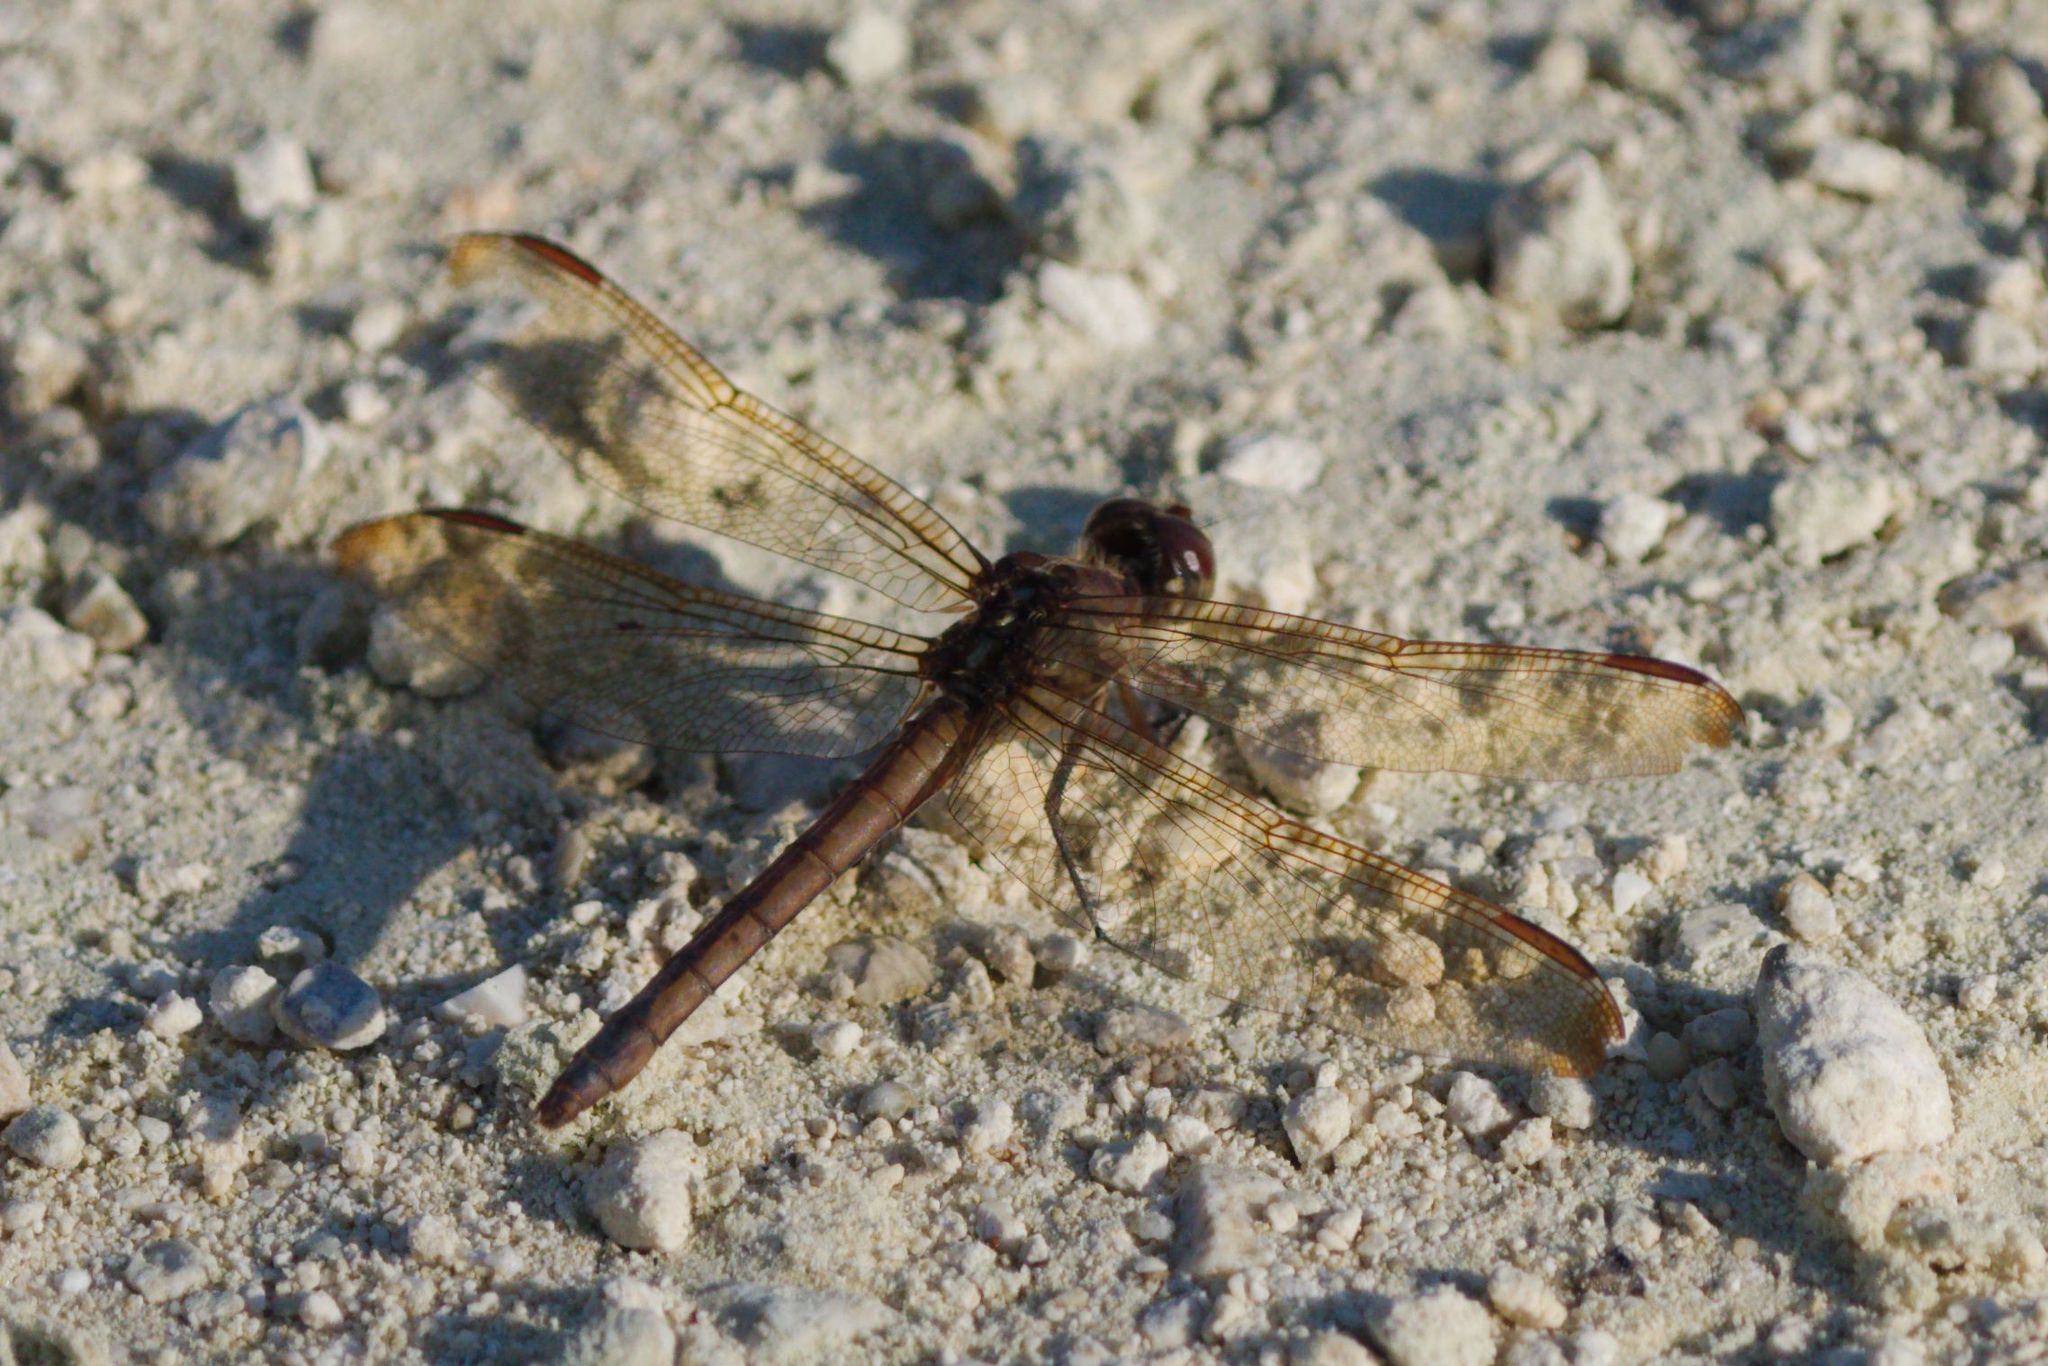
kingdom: Animalia
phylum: Arthropoda
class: Insecta
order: Odonata
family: Libellulidae
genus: Libellula
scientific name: Libellula auripennis
